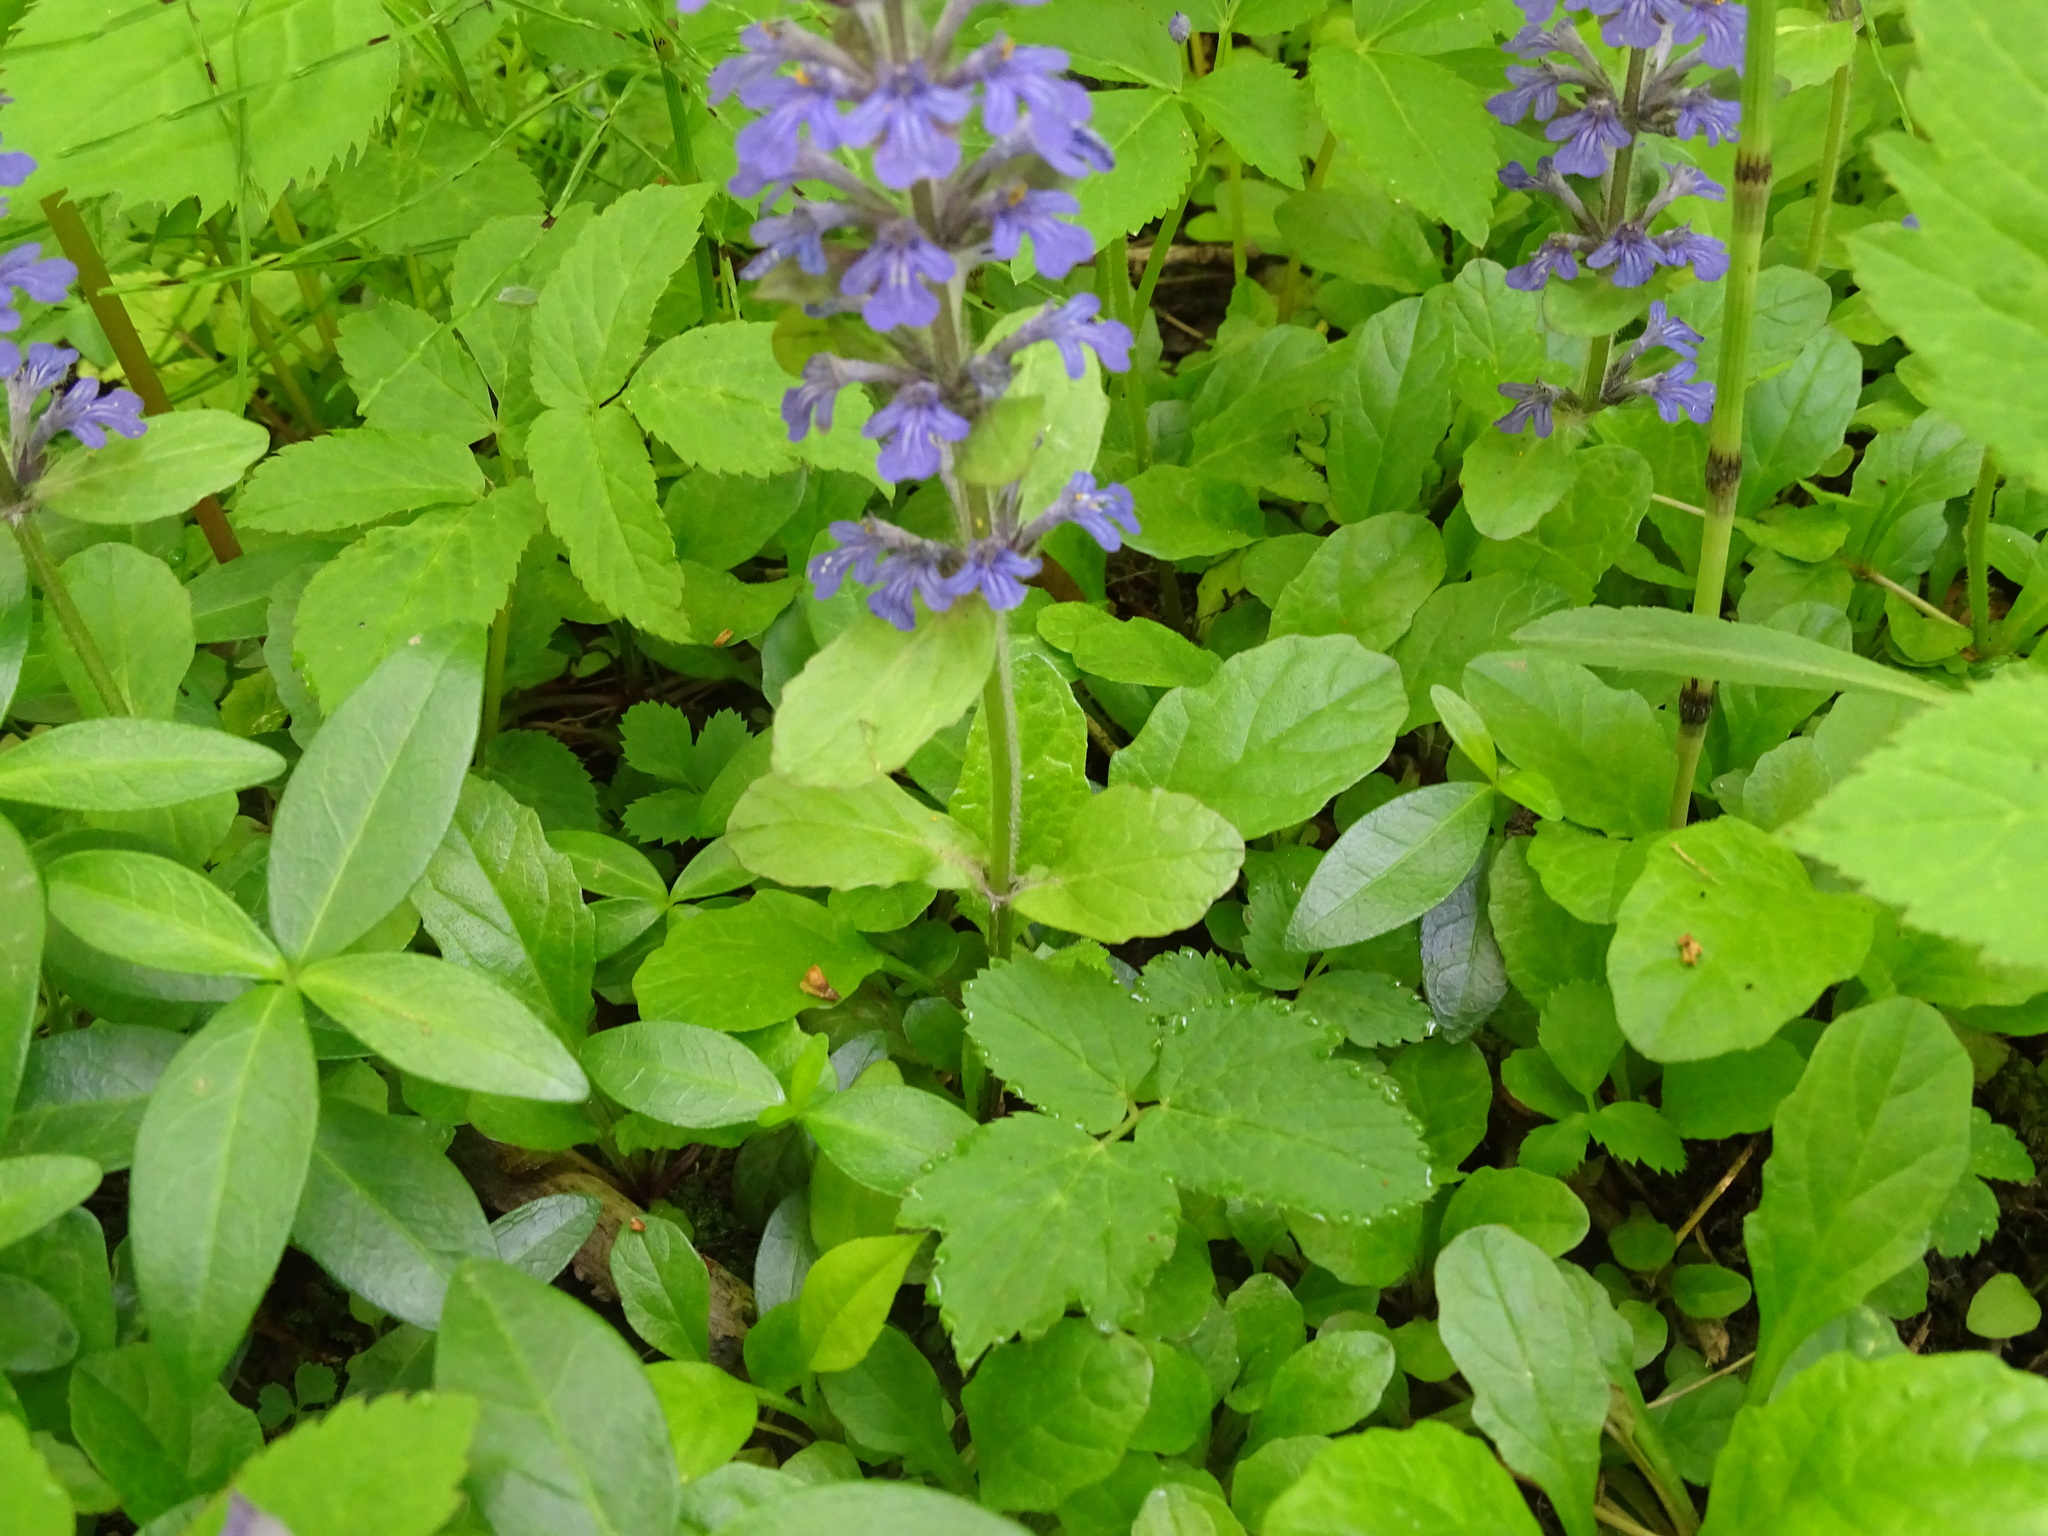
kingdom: Plantae
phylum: Tracheophyta
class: Magnoliopsida
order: Lamiales
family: Lamiaceae
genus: Ajuga
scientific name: Ajuga reptans
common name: Bugle
